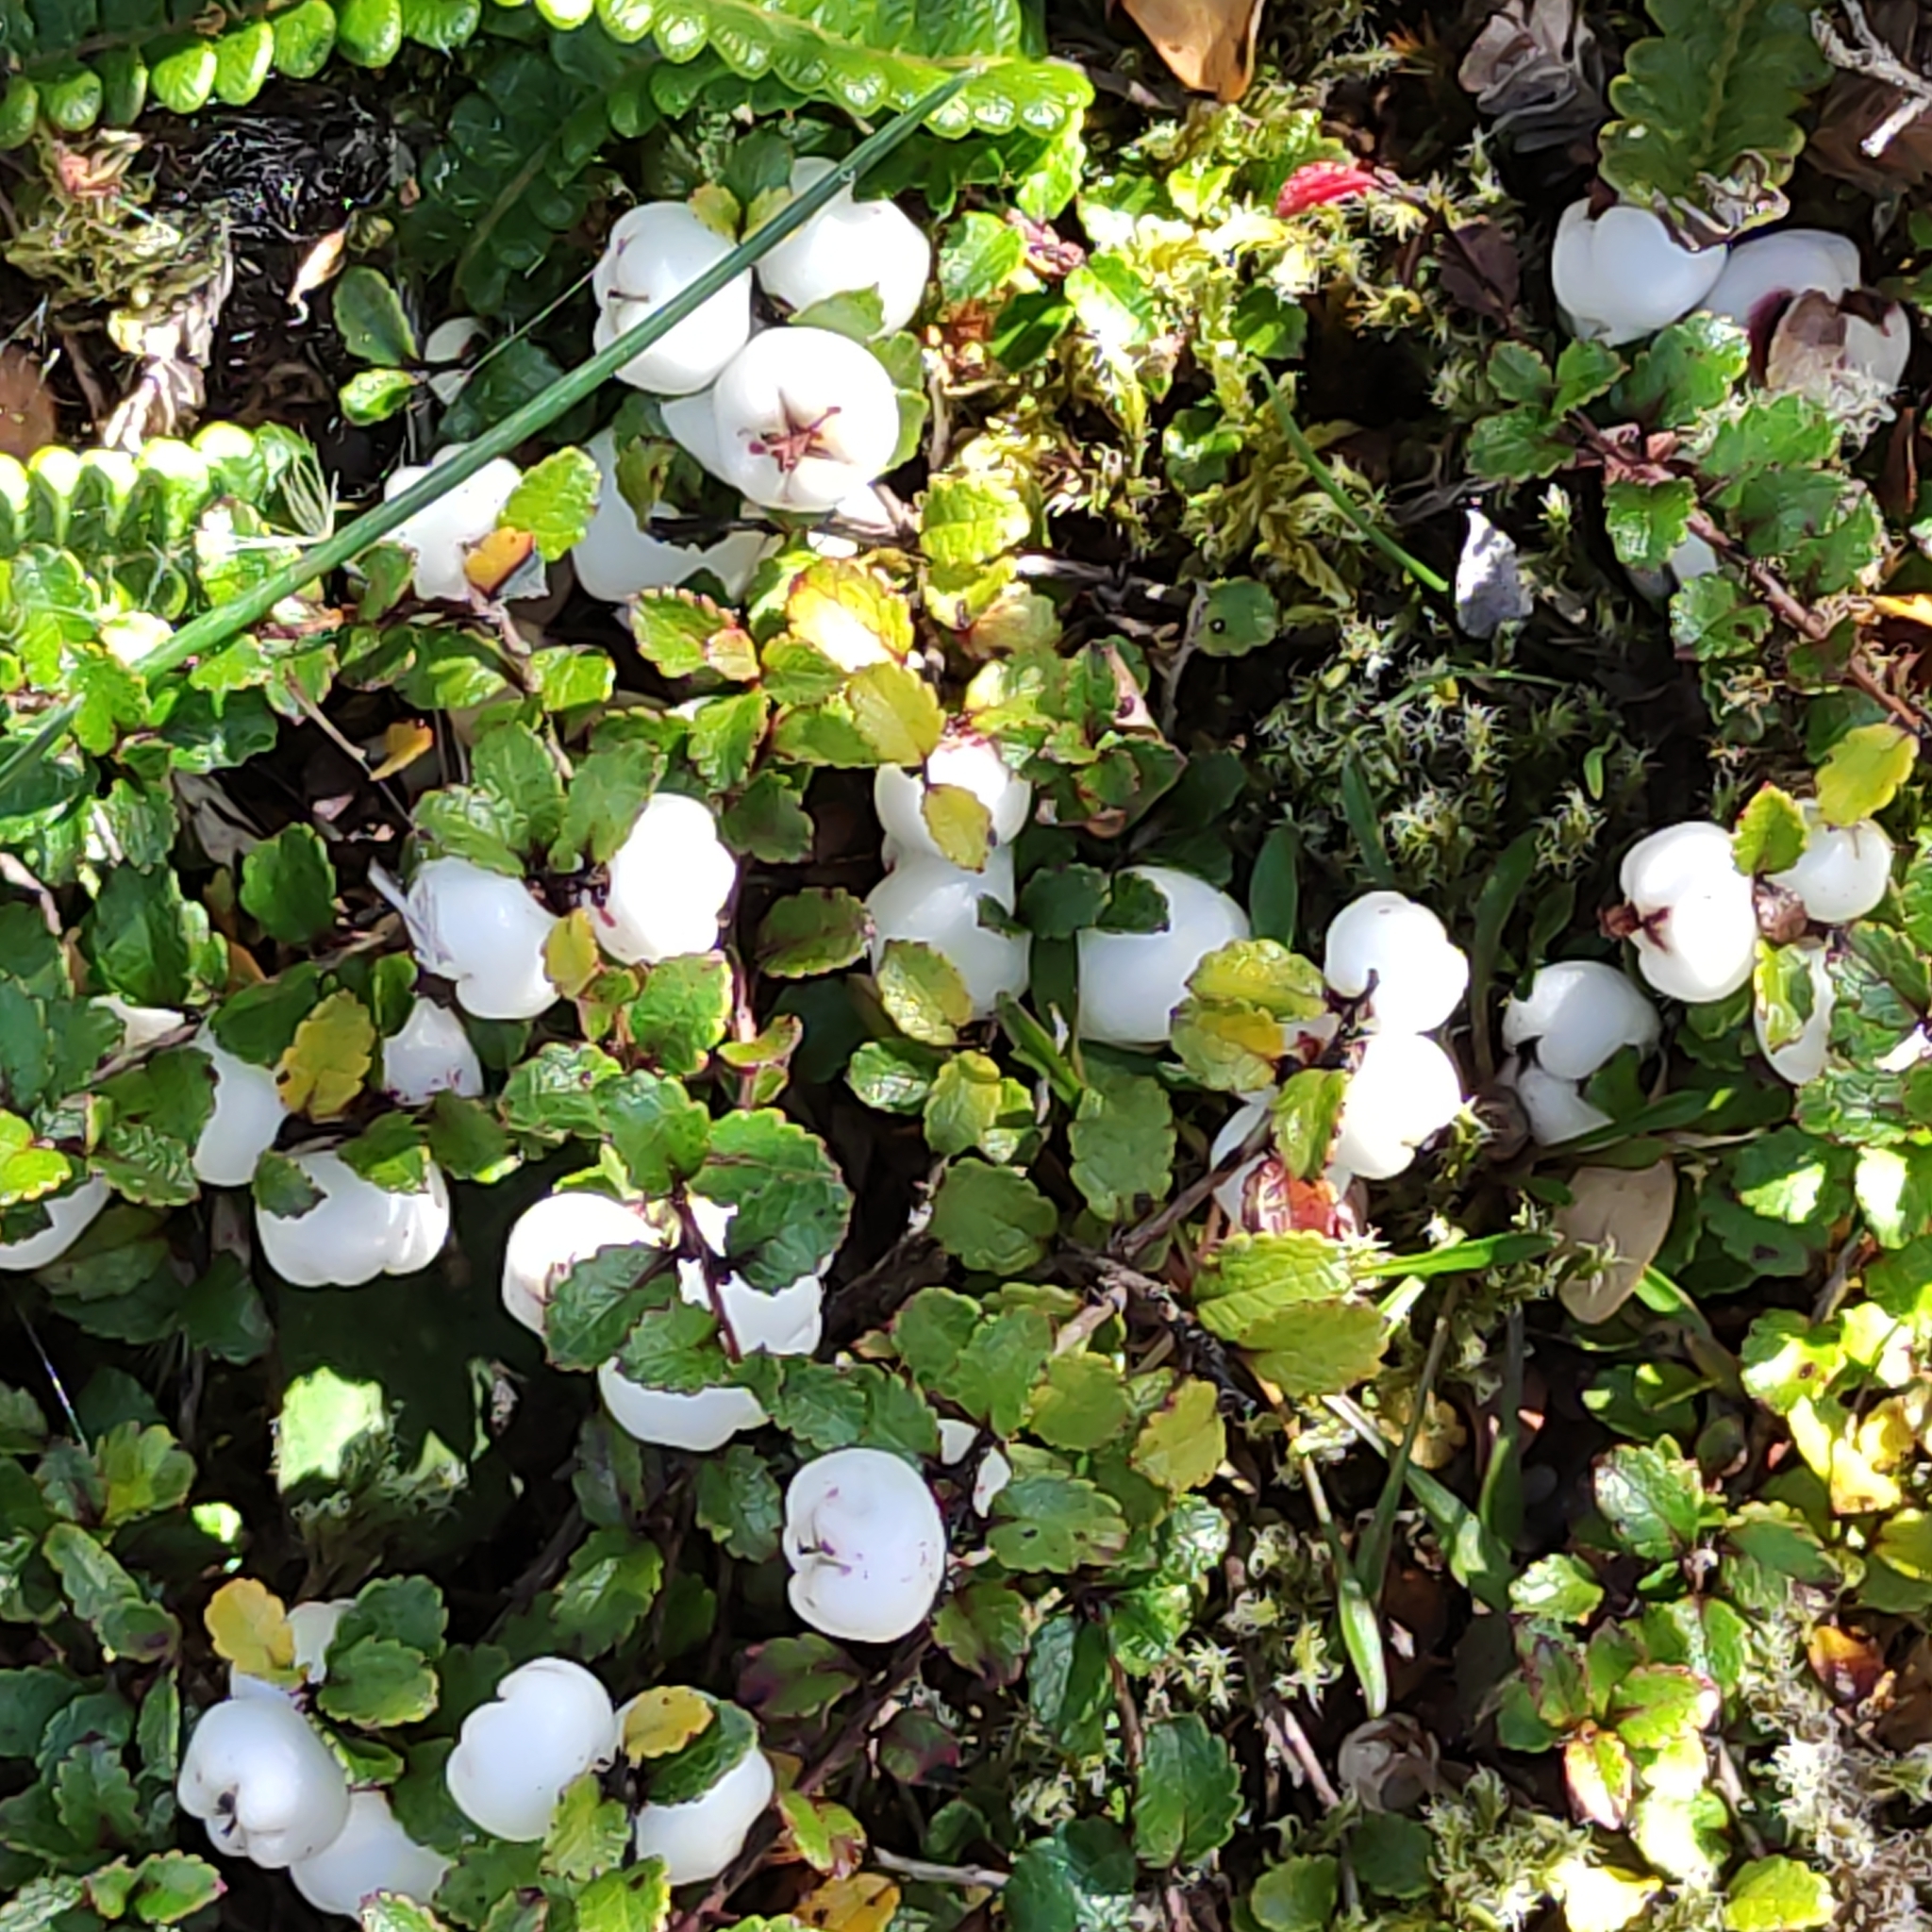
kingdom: Plantae
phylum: Tracheophyta
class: Magnoliopsida
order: Ericales
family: Ericaceae
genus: Gaultheria
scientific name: Gaultheria depressa
